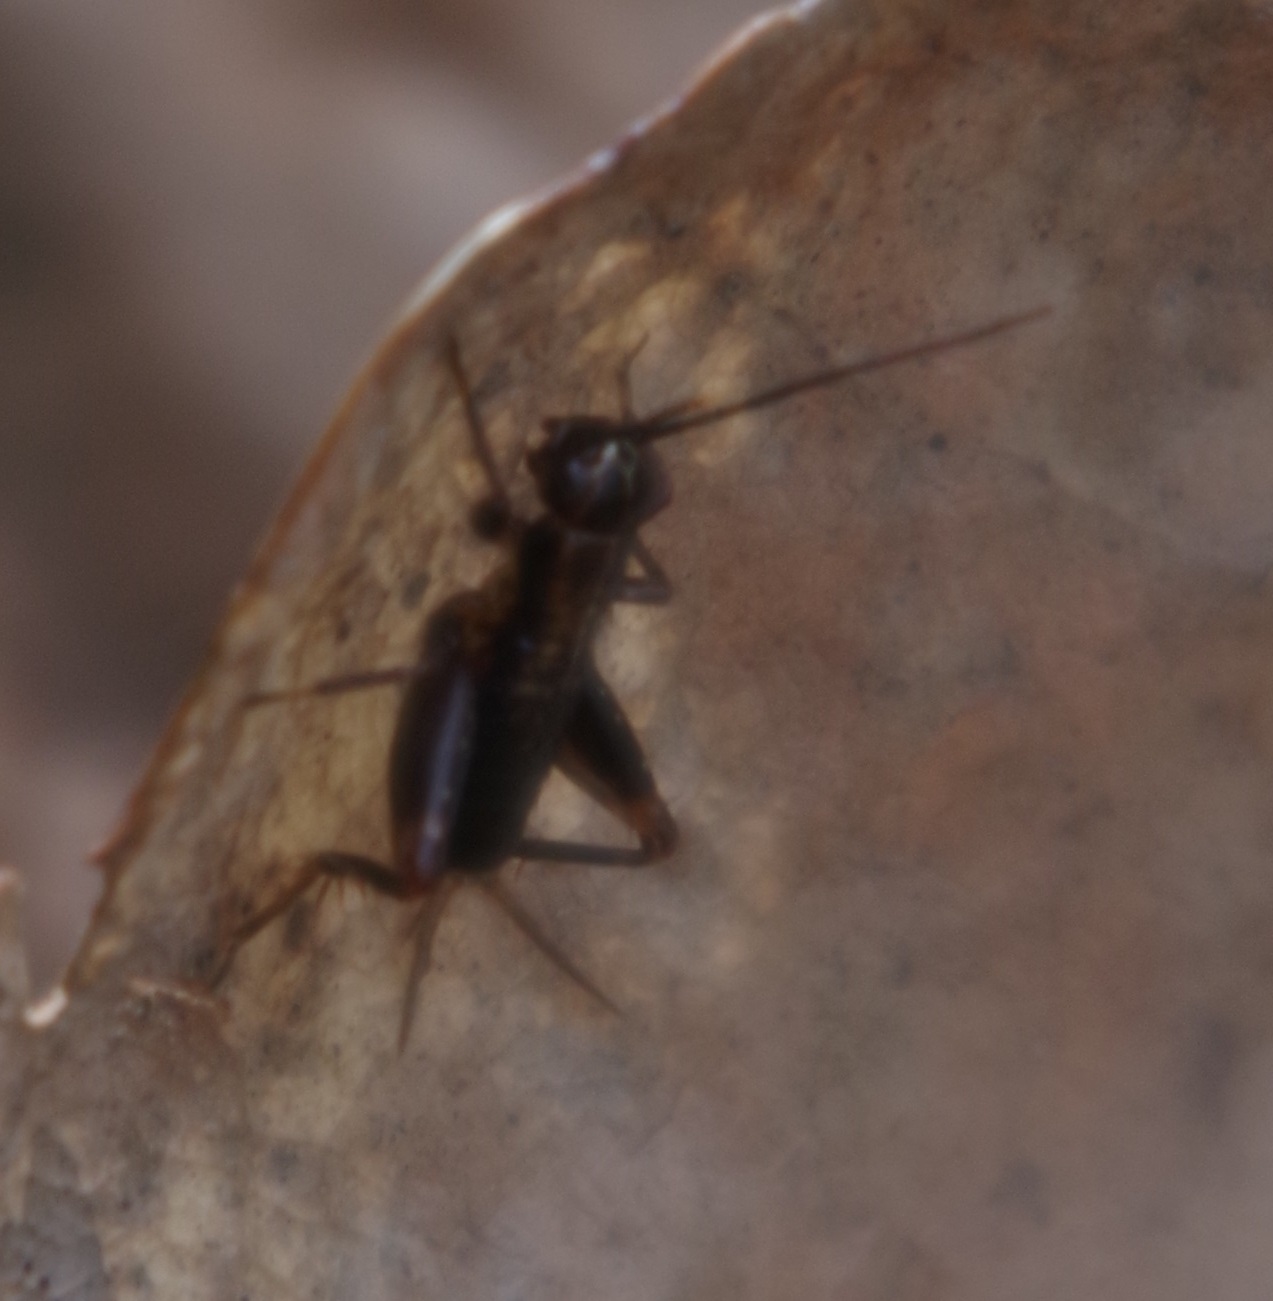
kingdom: Animalia
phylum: Arthropoda
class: Insecta
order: Orthoptera
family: Trigonidiidae
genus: Nemobius
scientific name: Nemobius sylvestris
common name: Wood-cricket
